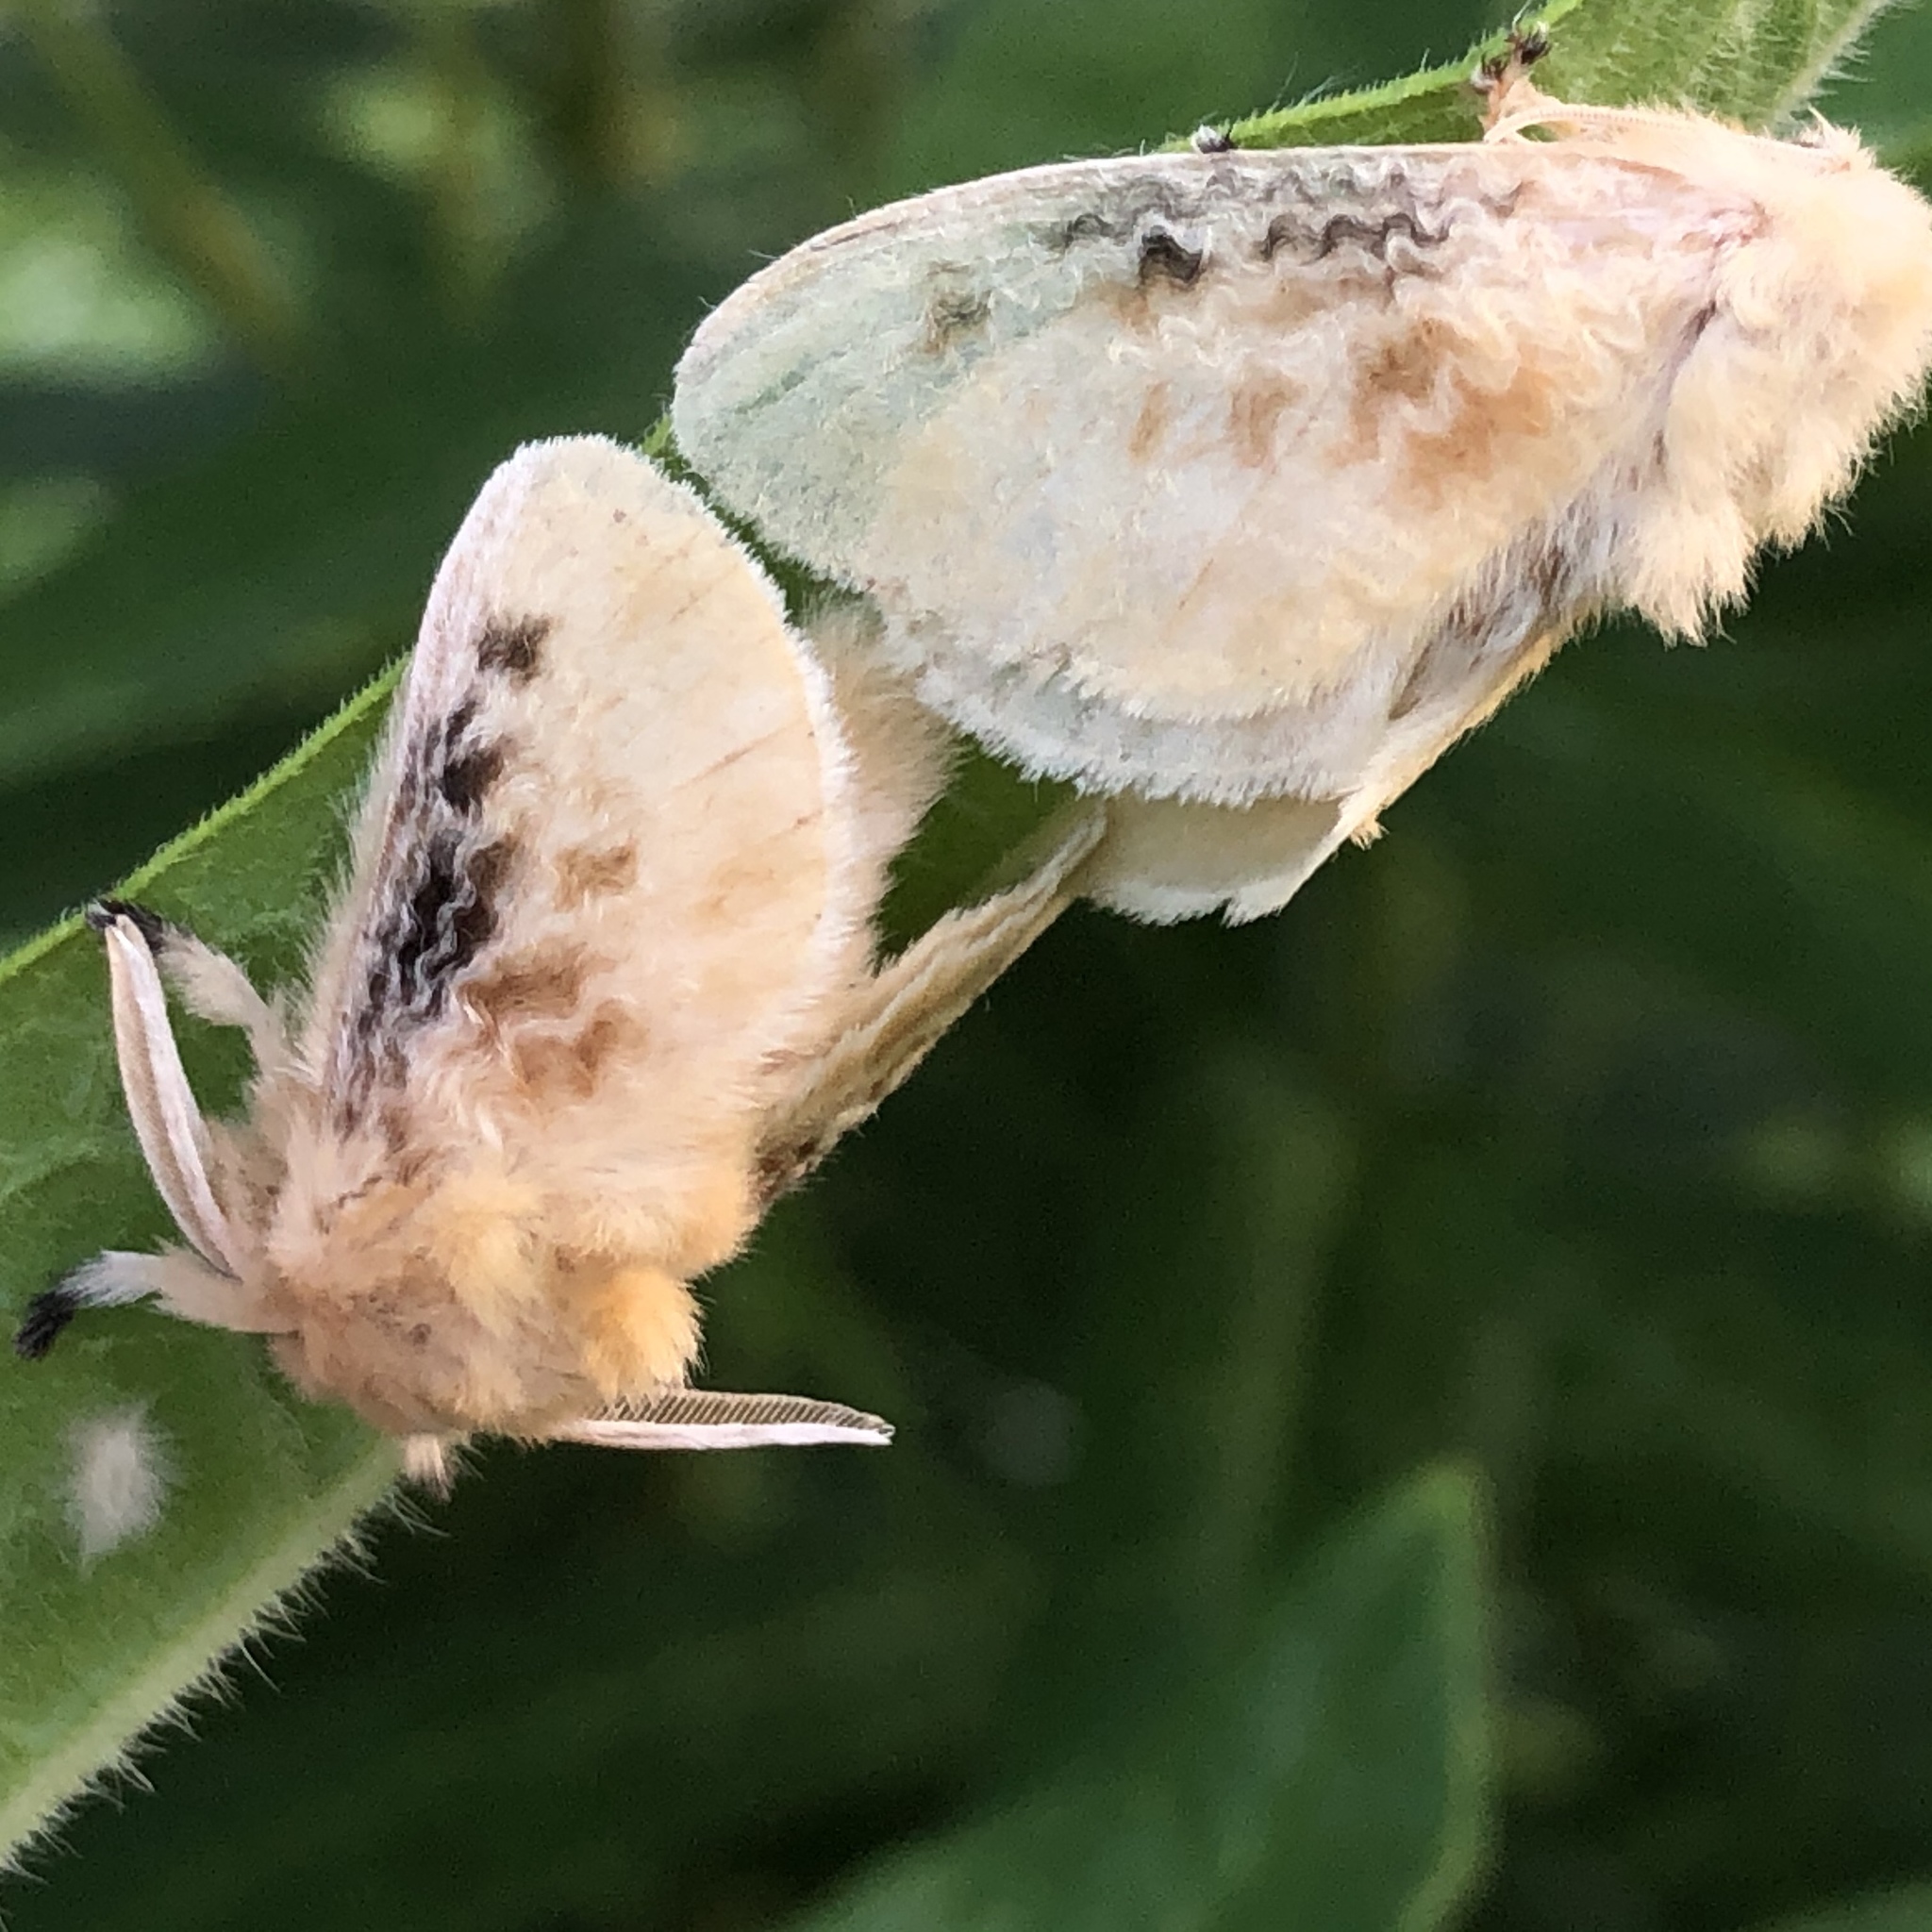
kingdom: Animalia
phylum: Arthropoda
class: Insecta
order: Lepidoptera
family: Megalopygidae
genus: Megalopyge
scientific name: Megalopyge crispata
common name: Black-waved flannel moth
